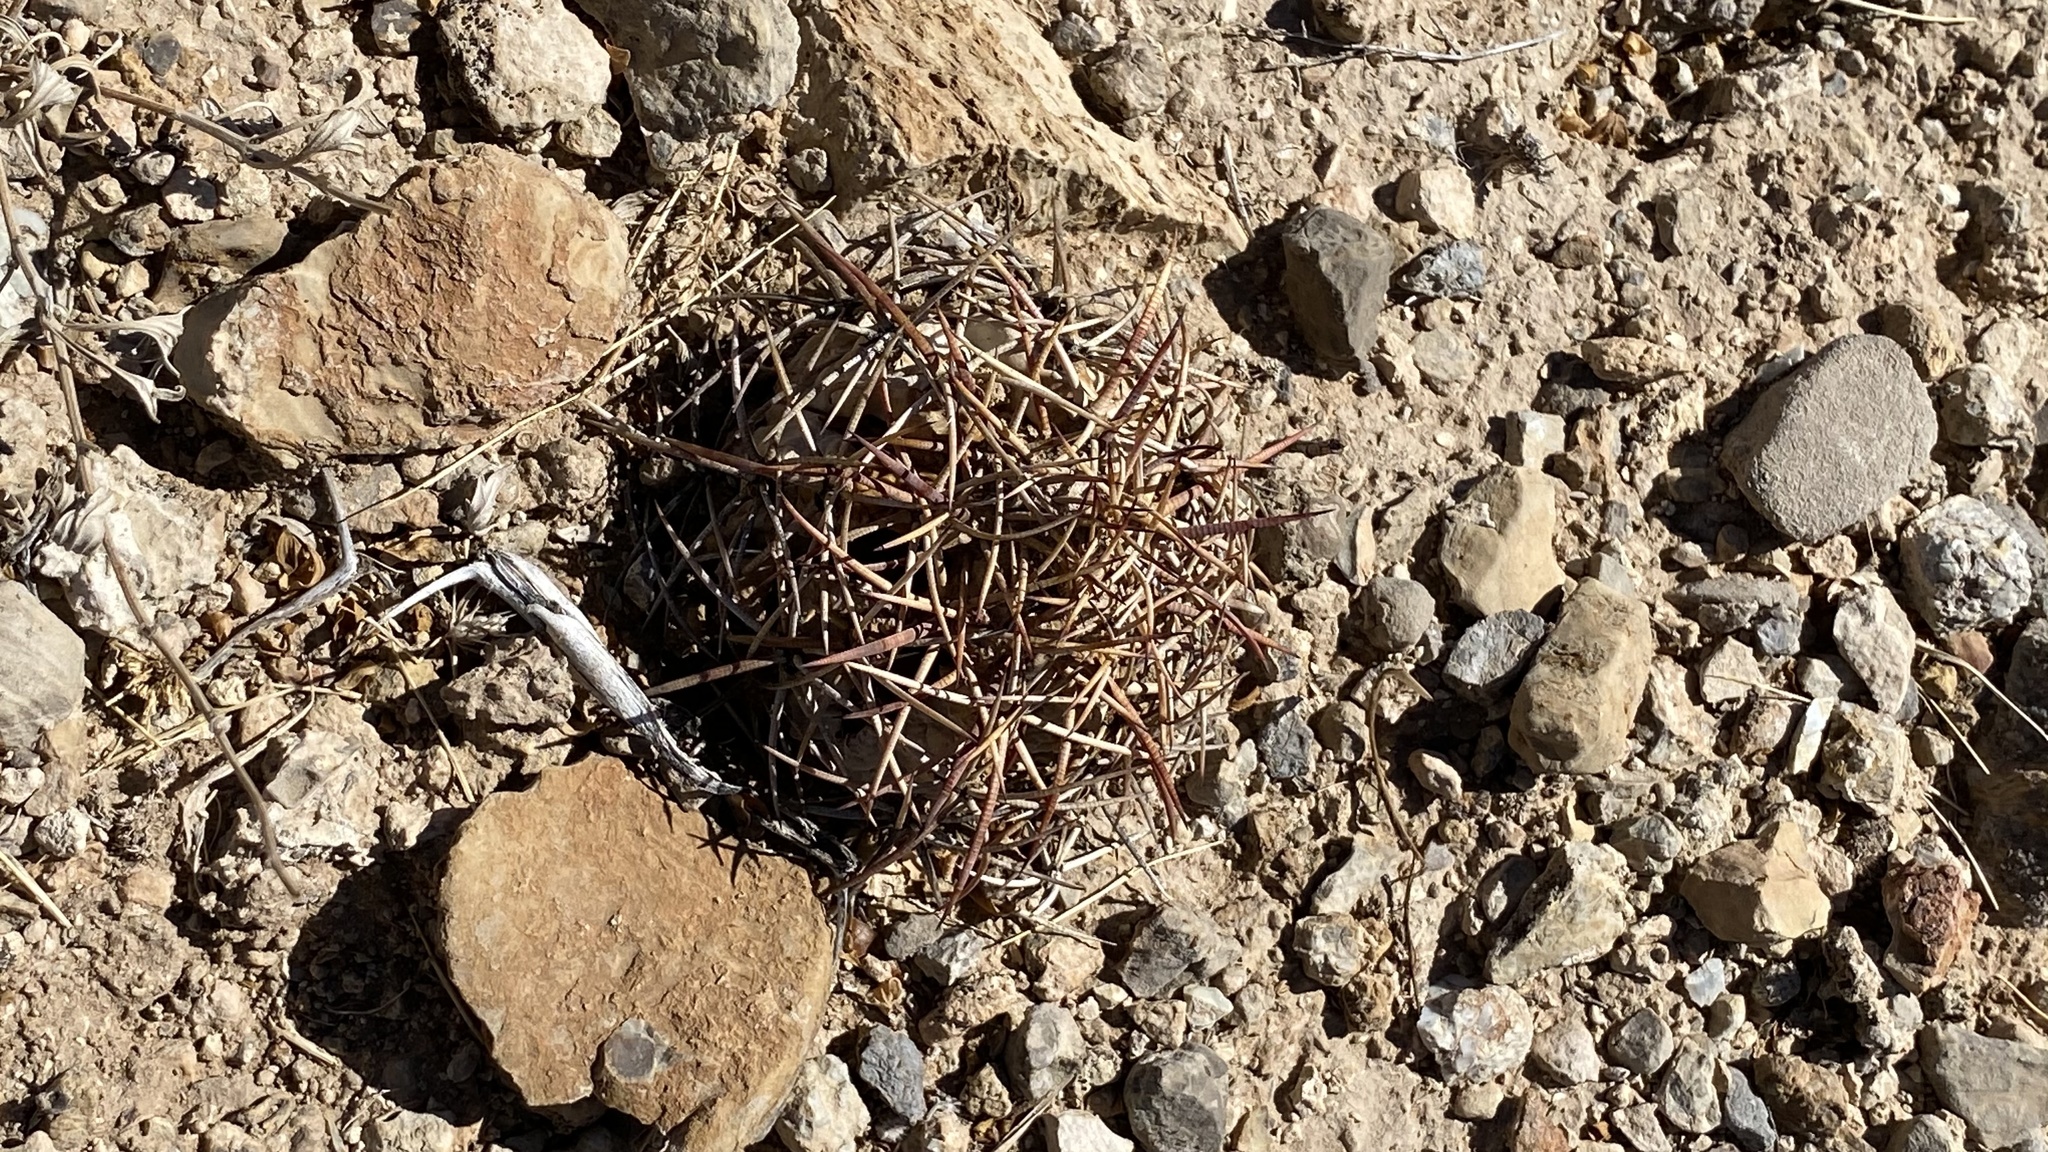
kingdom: Plantae
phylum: Tracheophyta
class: Magnoliopsida
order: Caryophyllales
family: Cactaceae
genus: Echinocactus
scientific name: Echinocactus horizonthalonius
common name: Devilshead
